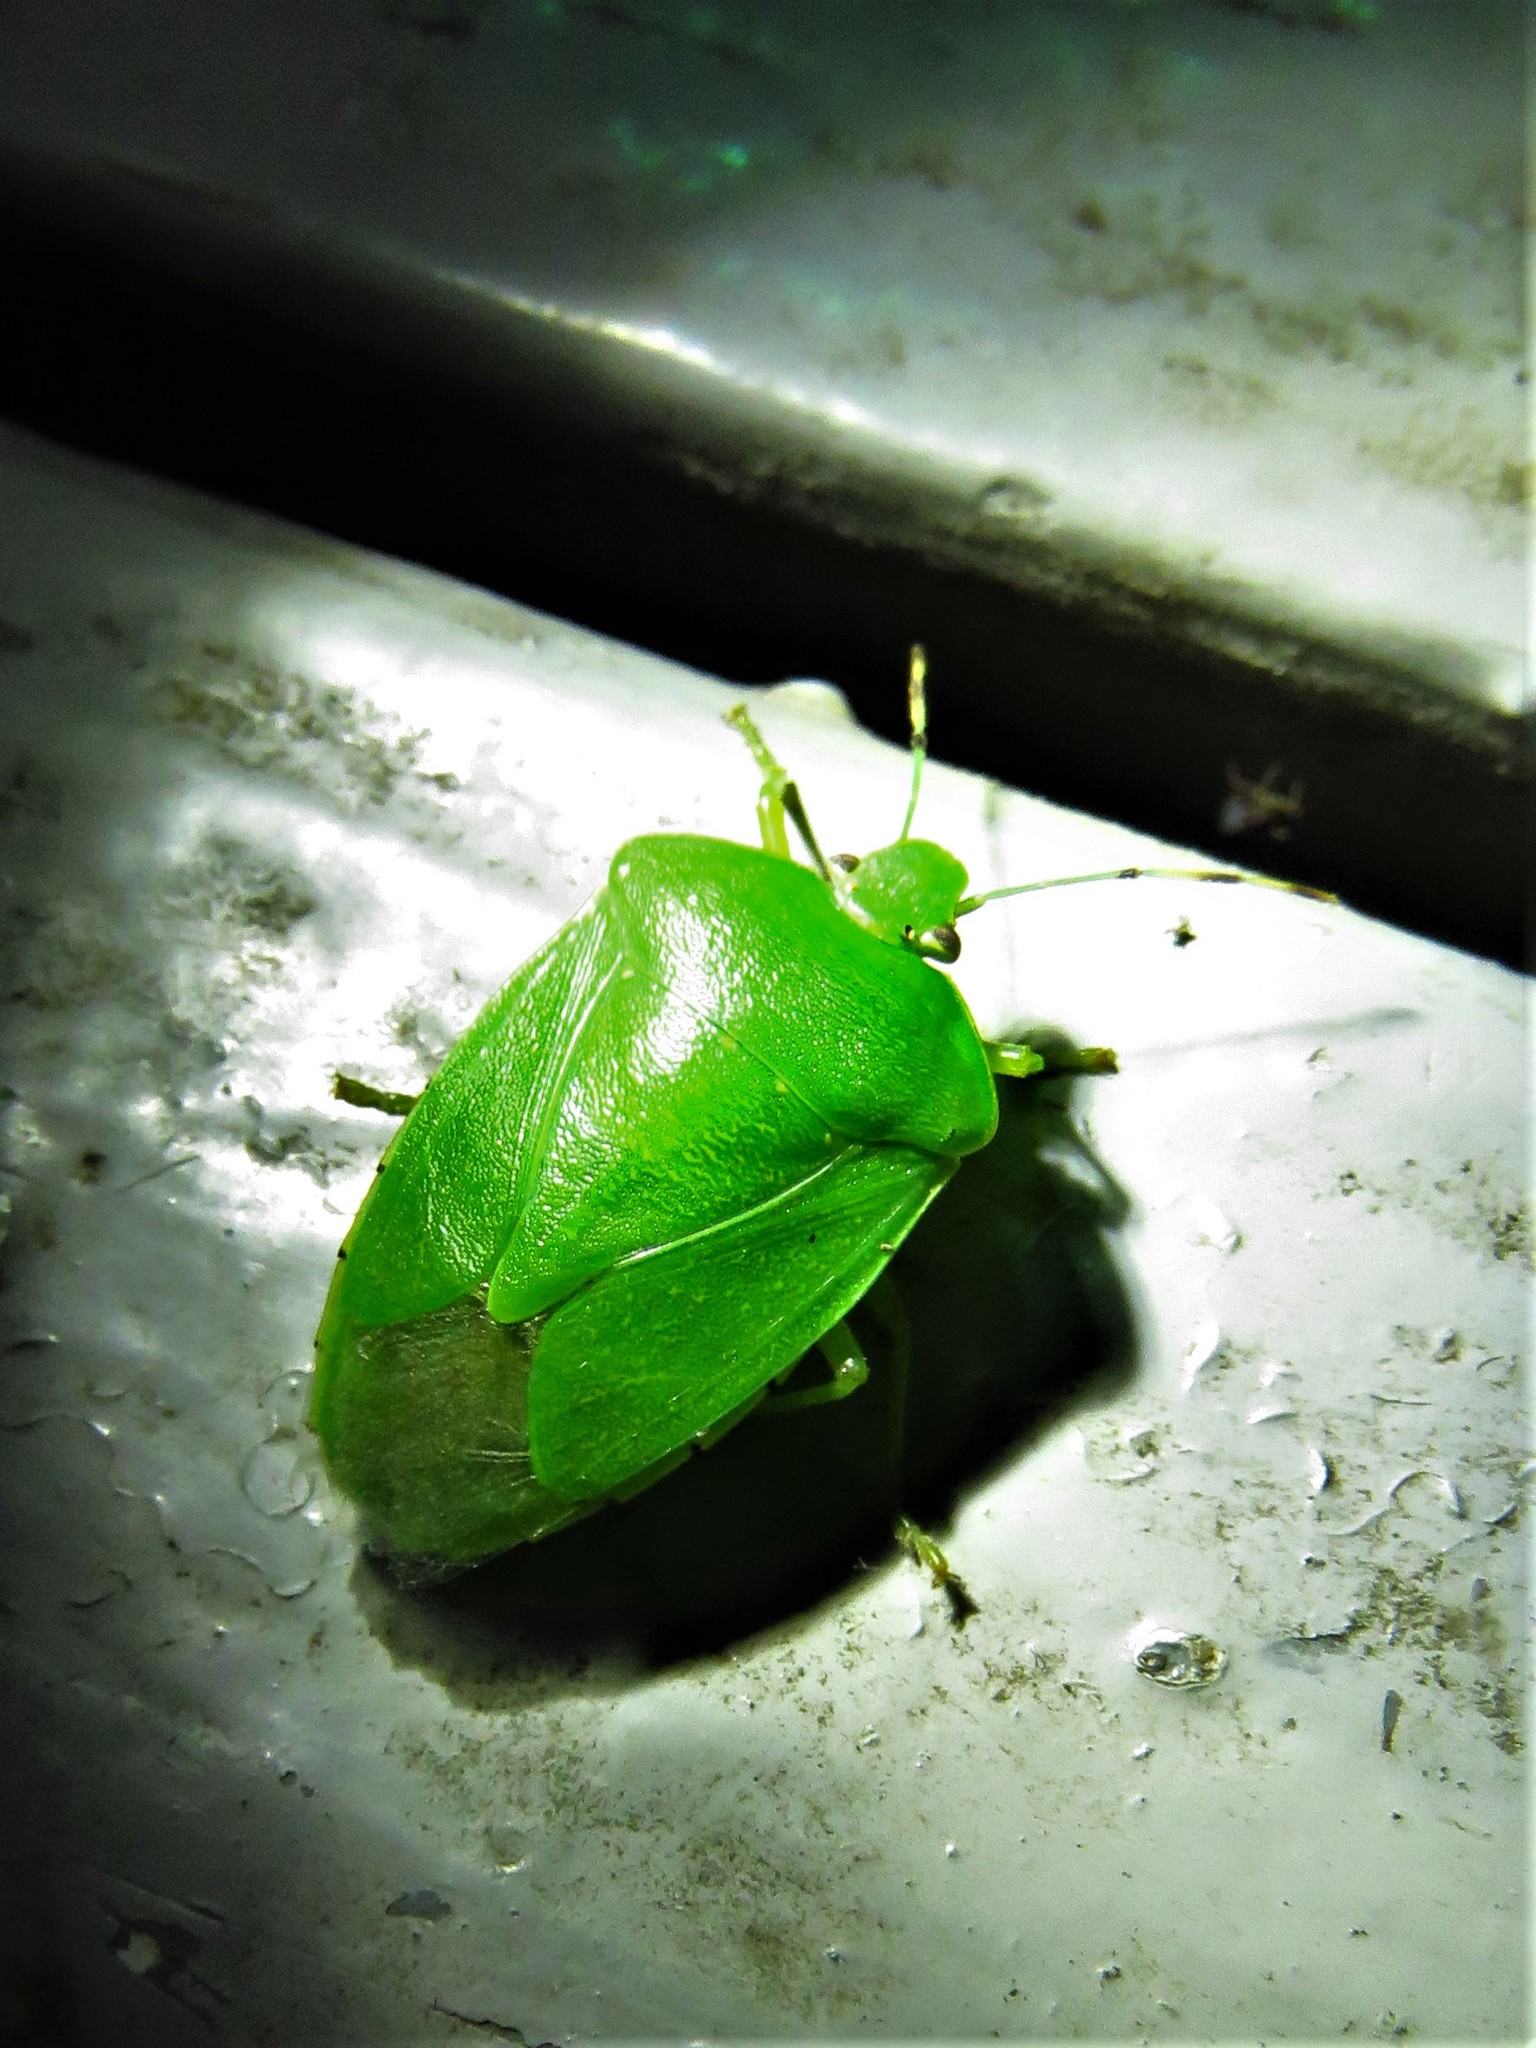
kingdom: Animalia
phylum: Arthropoda
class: Insecta
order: Hemiptera
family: Pentatomidae
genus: Chinavia
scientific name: Chinavia hilaris
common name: Green stink bug
